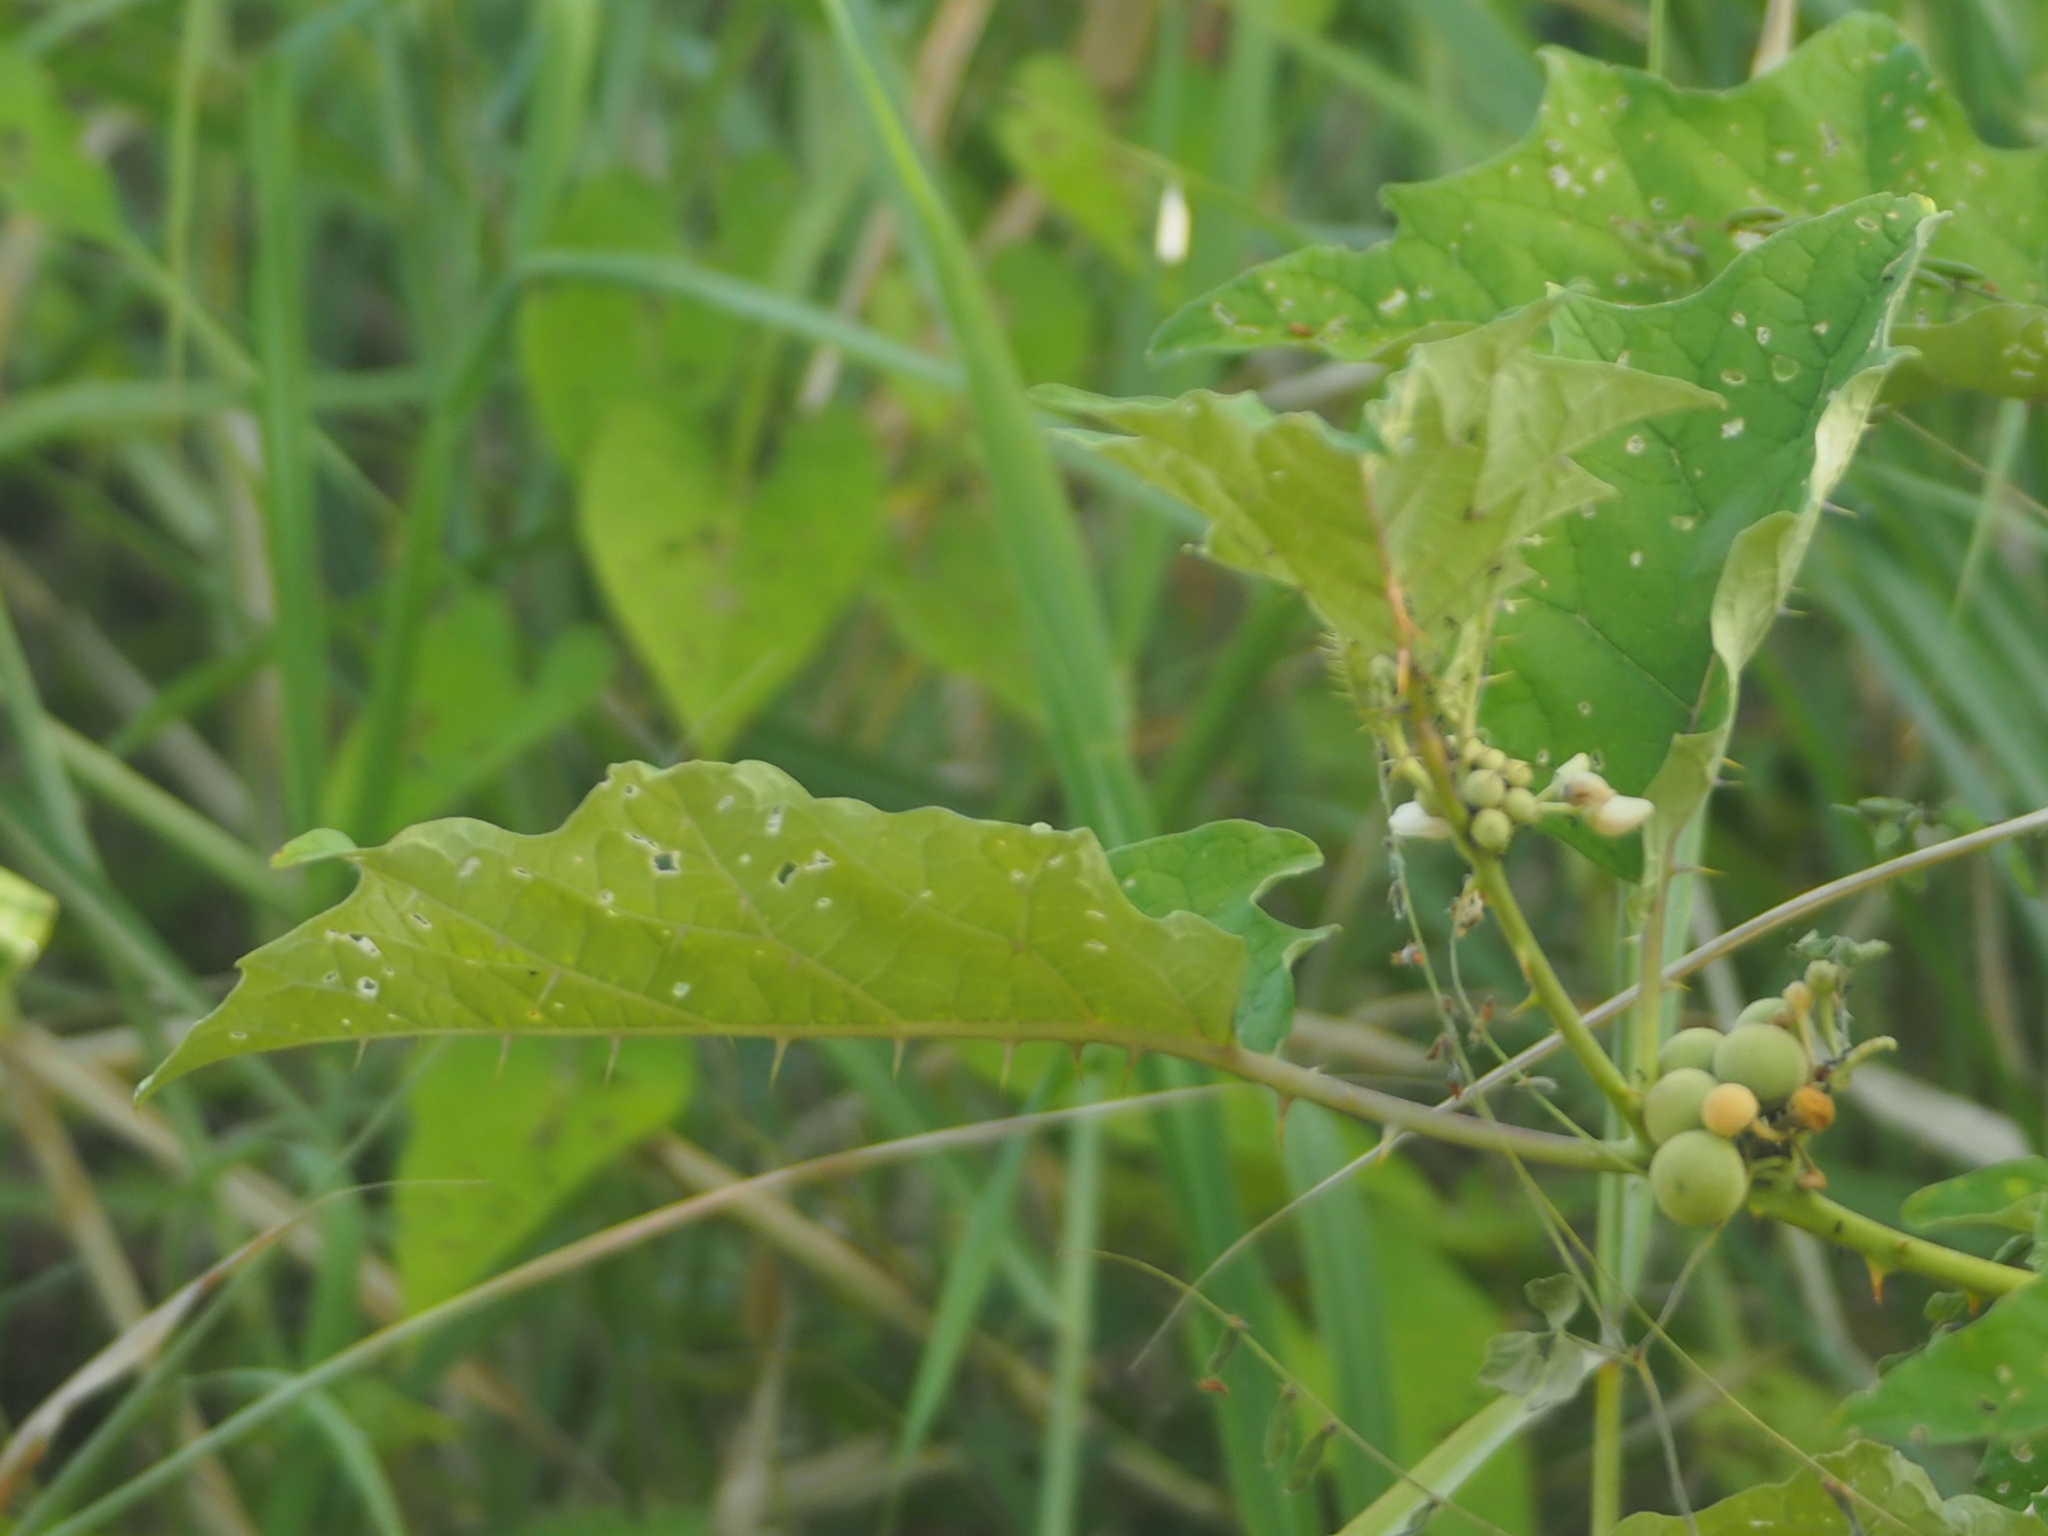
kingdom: Plantae
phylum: Tracheophyta
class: Magnoliopsida
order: Solanales
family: Solanaceae
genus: Solanum
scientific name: Solanum
